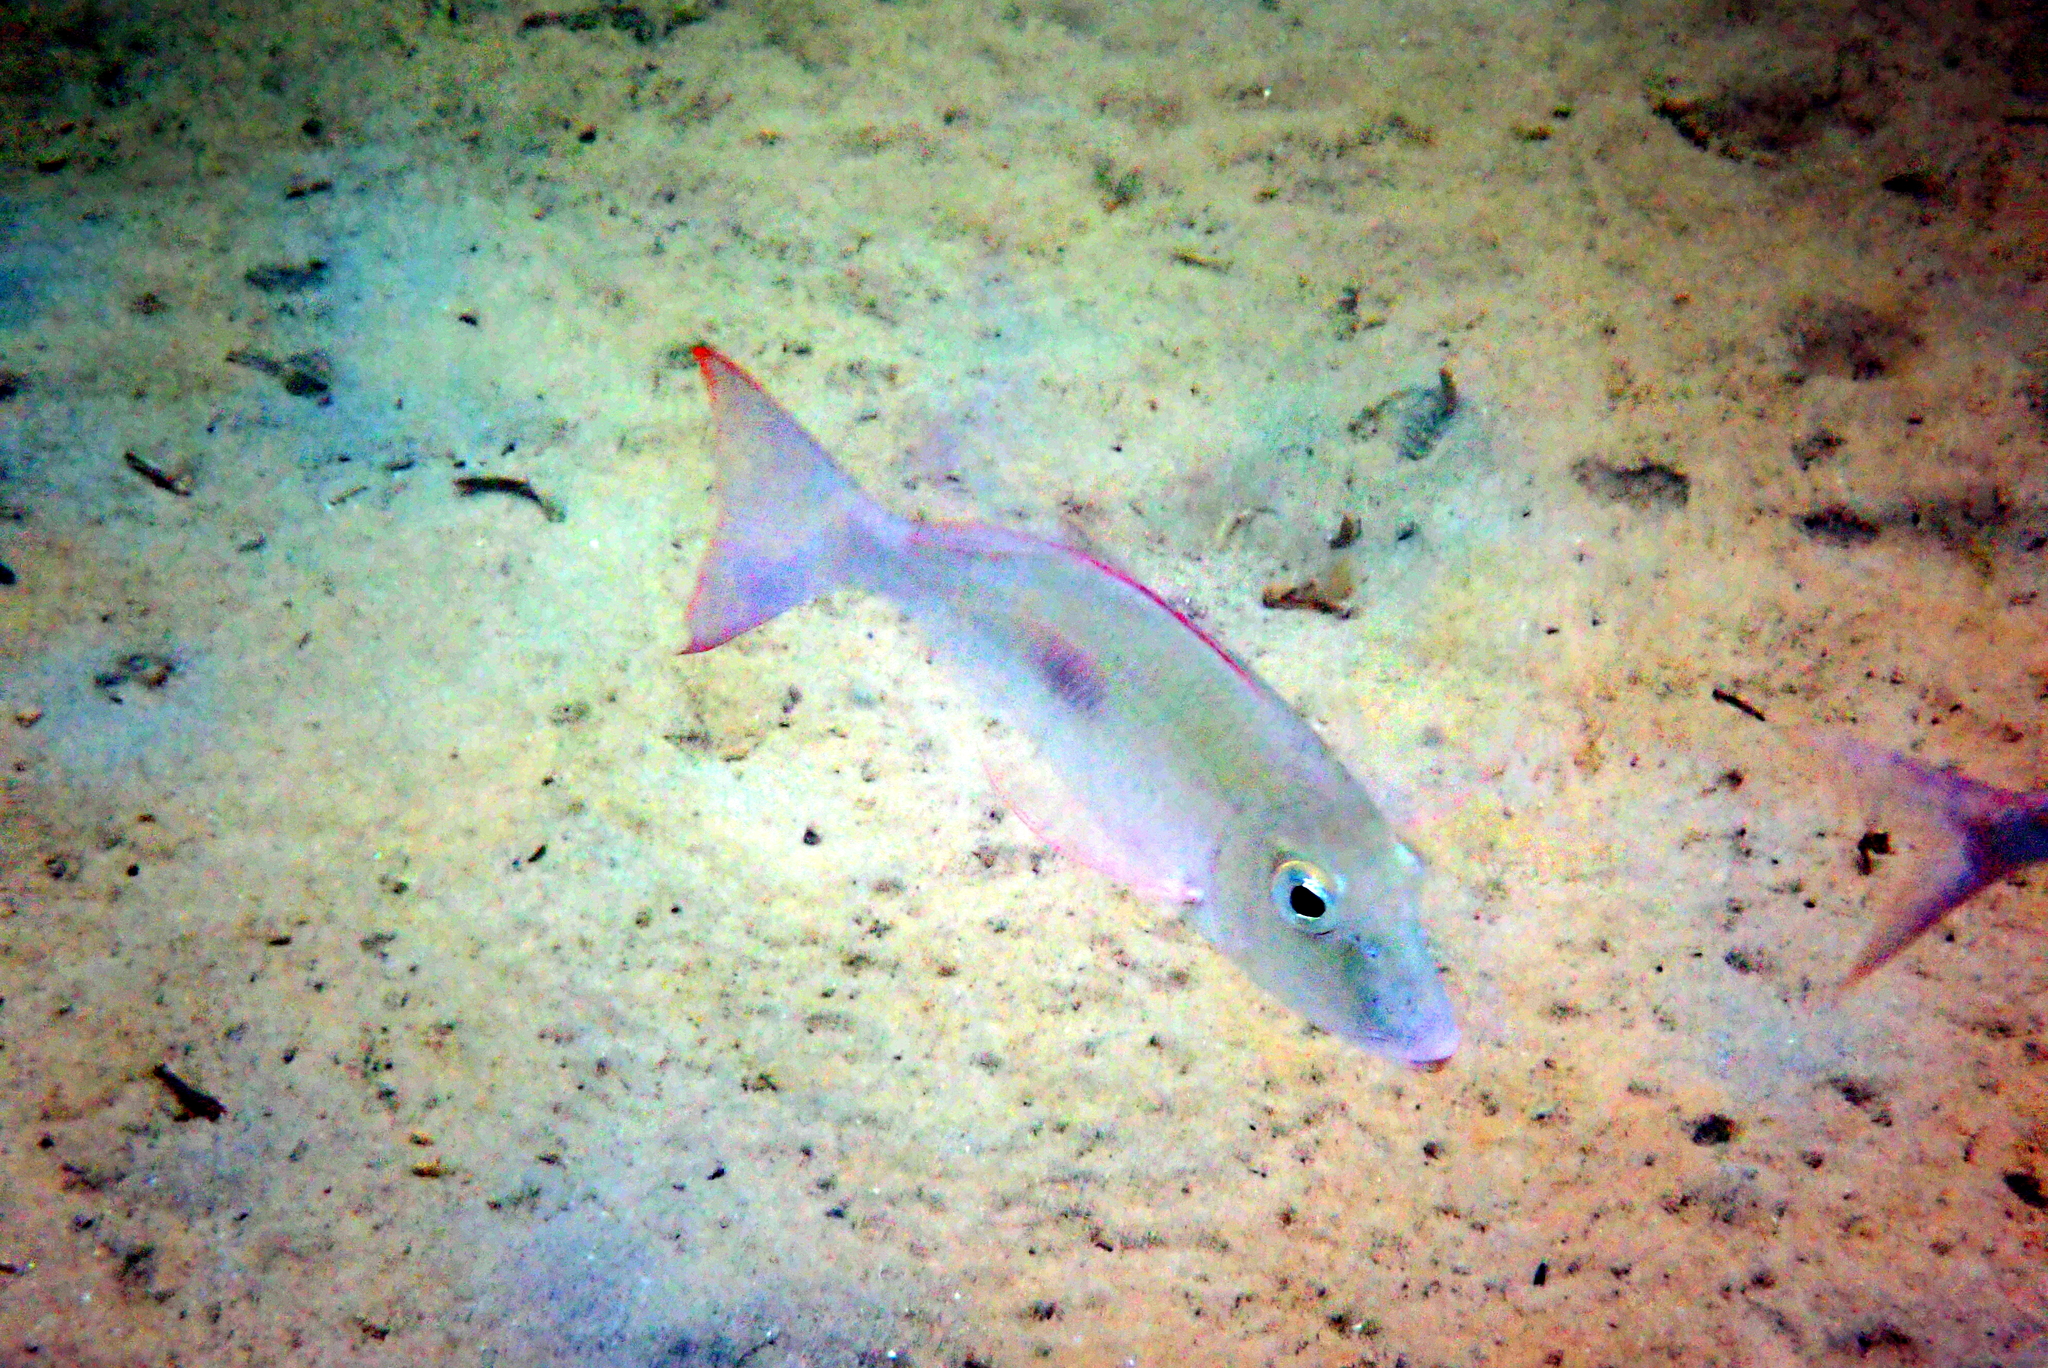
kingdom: Animalia
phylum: Chordata
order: Perciformes
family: Lethrinidae
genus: Lethrinus
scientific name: Lethrinus harak
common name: Blackspot emperor
